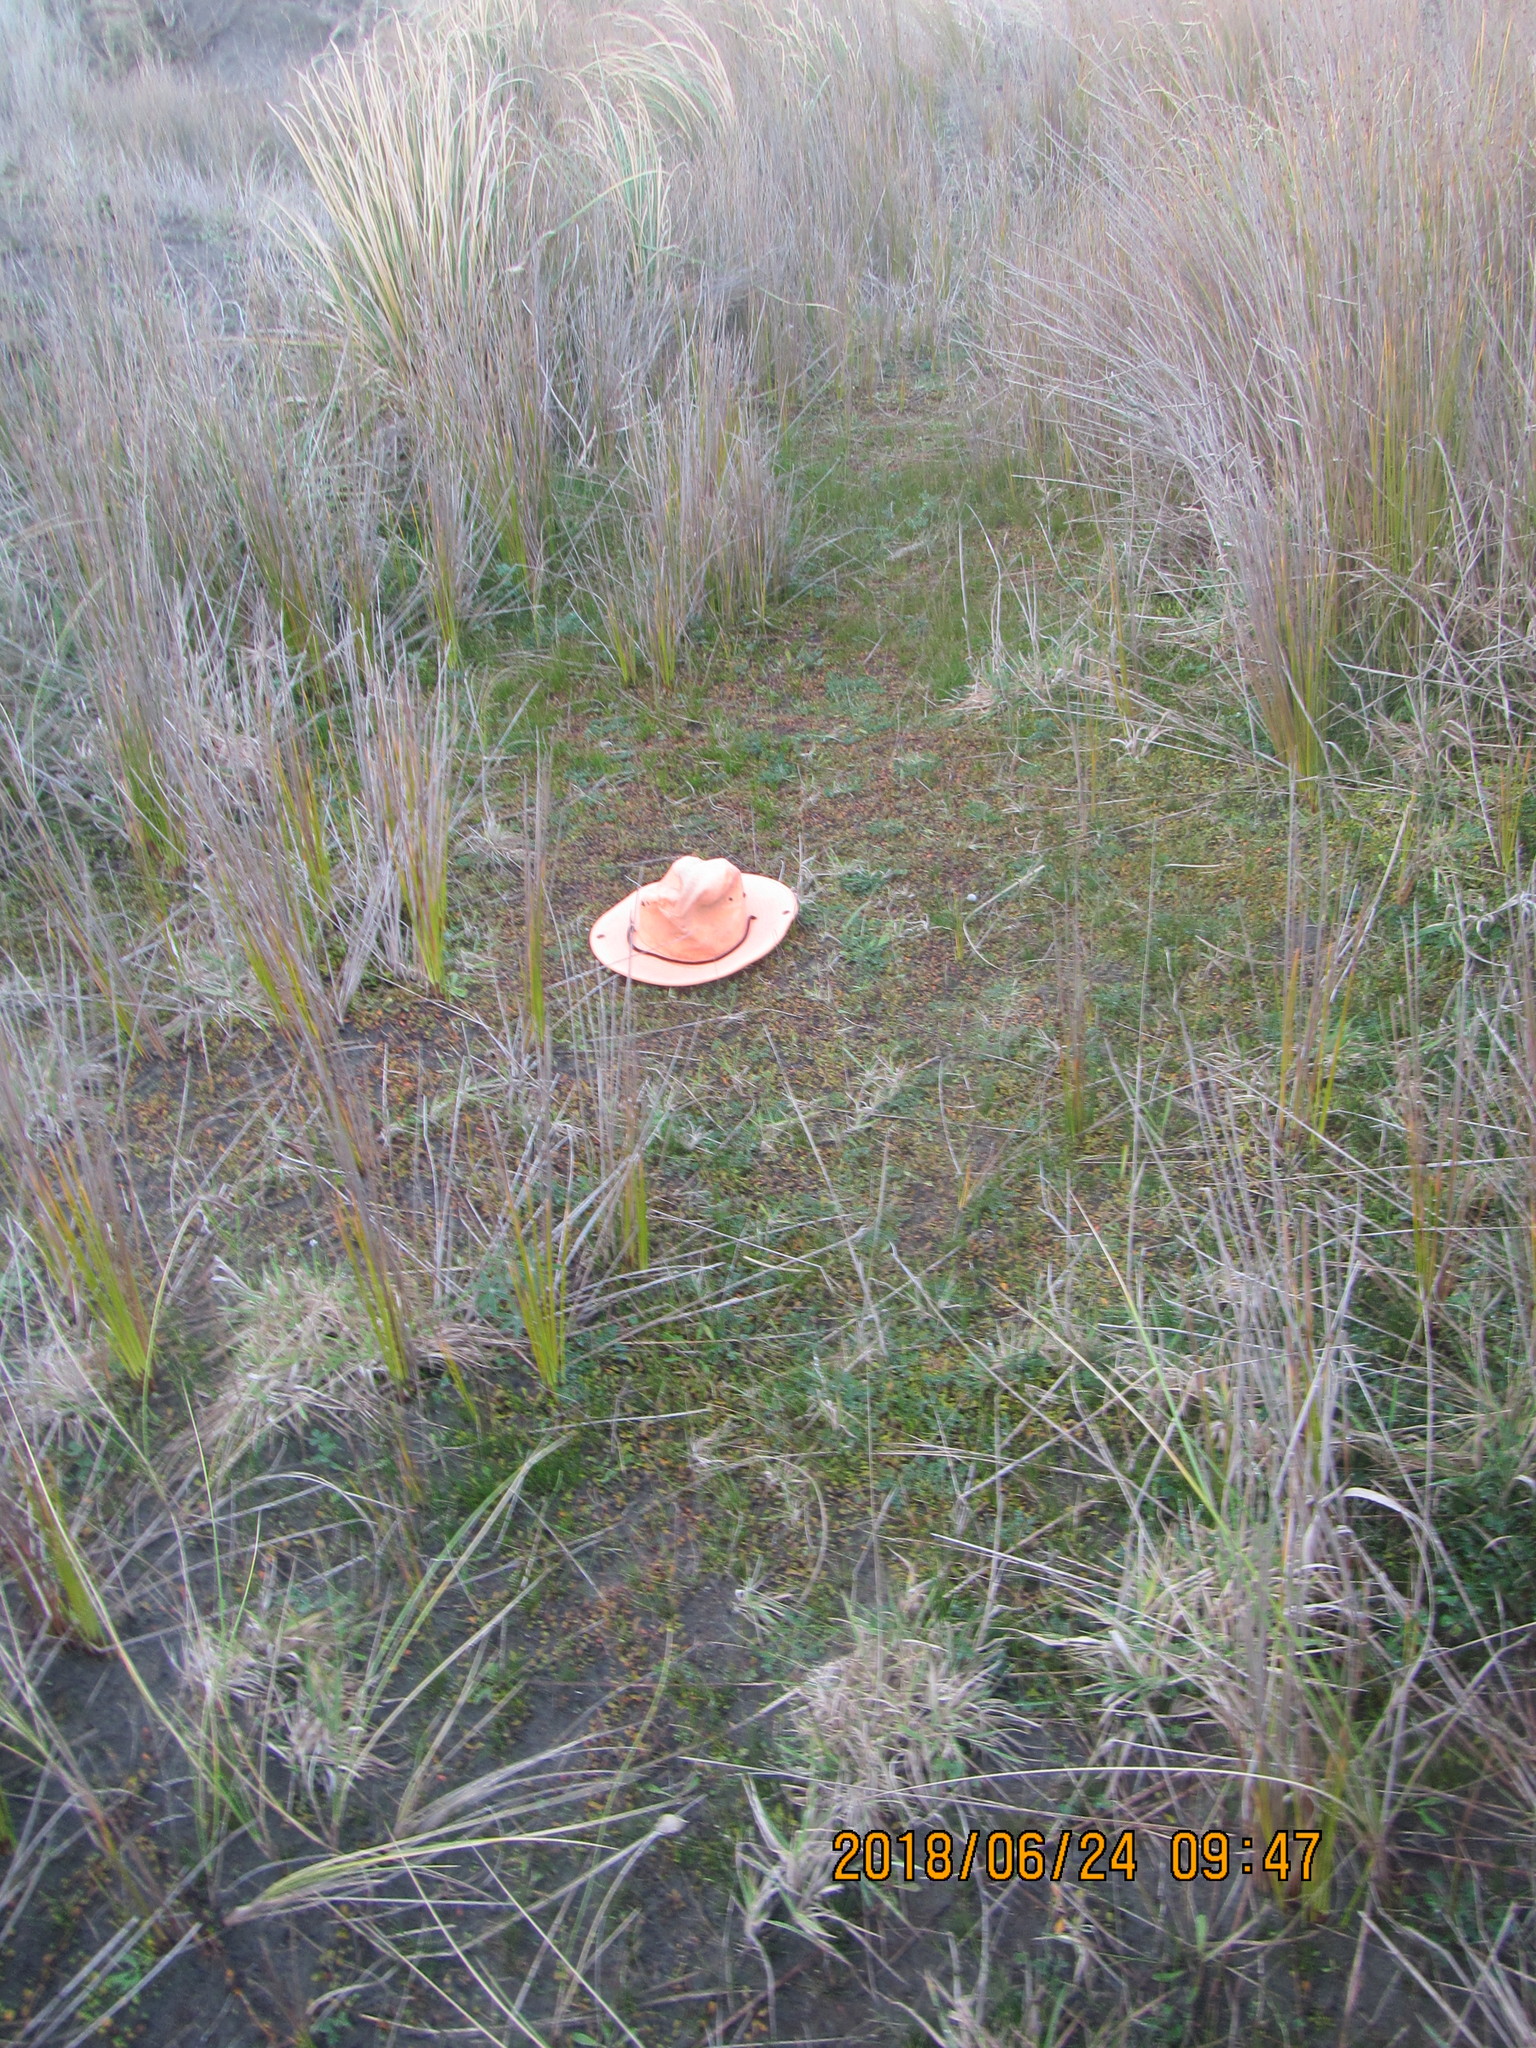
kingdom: Plantae
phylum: Tracheophyta
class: Magnoliopsida
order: Asterales
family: Goodeniaceae
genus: Goodenia
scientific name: Goodenia radicans
